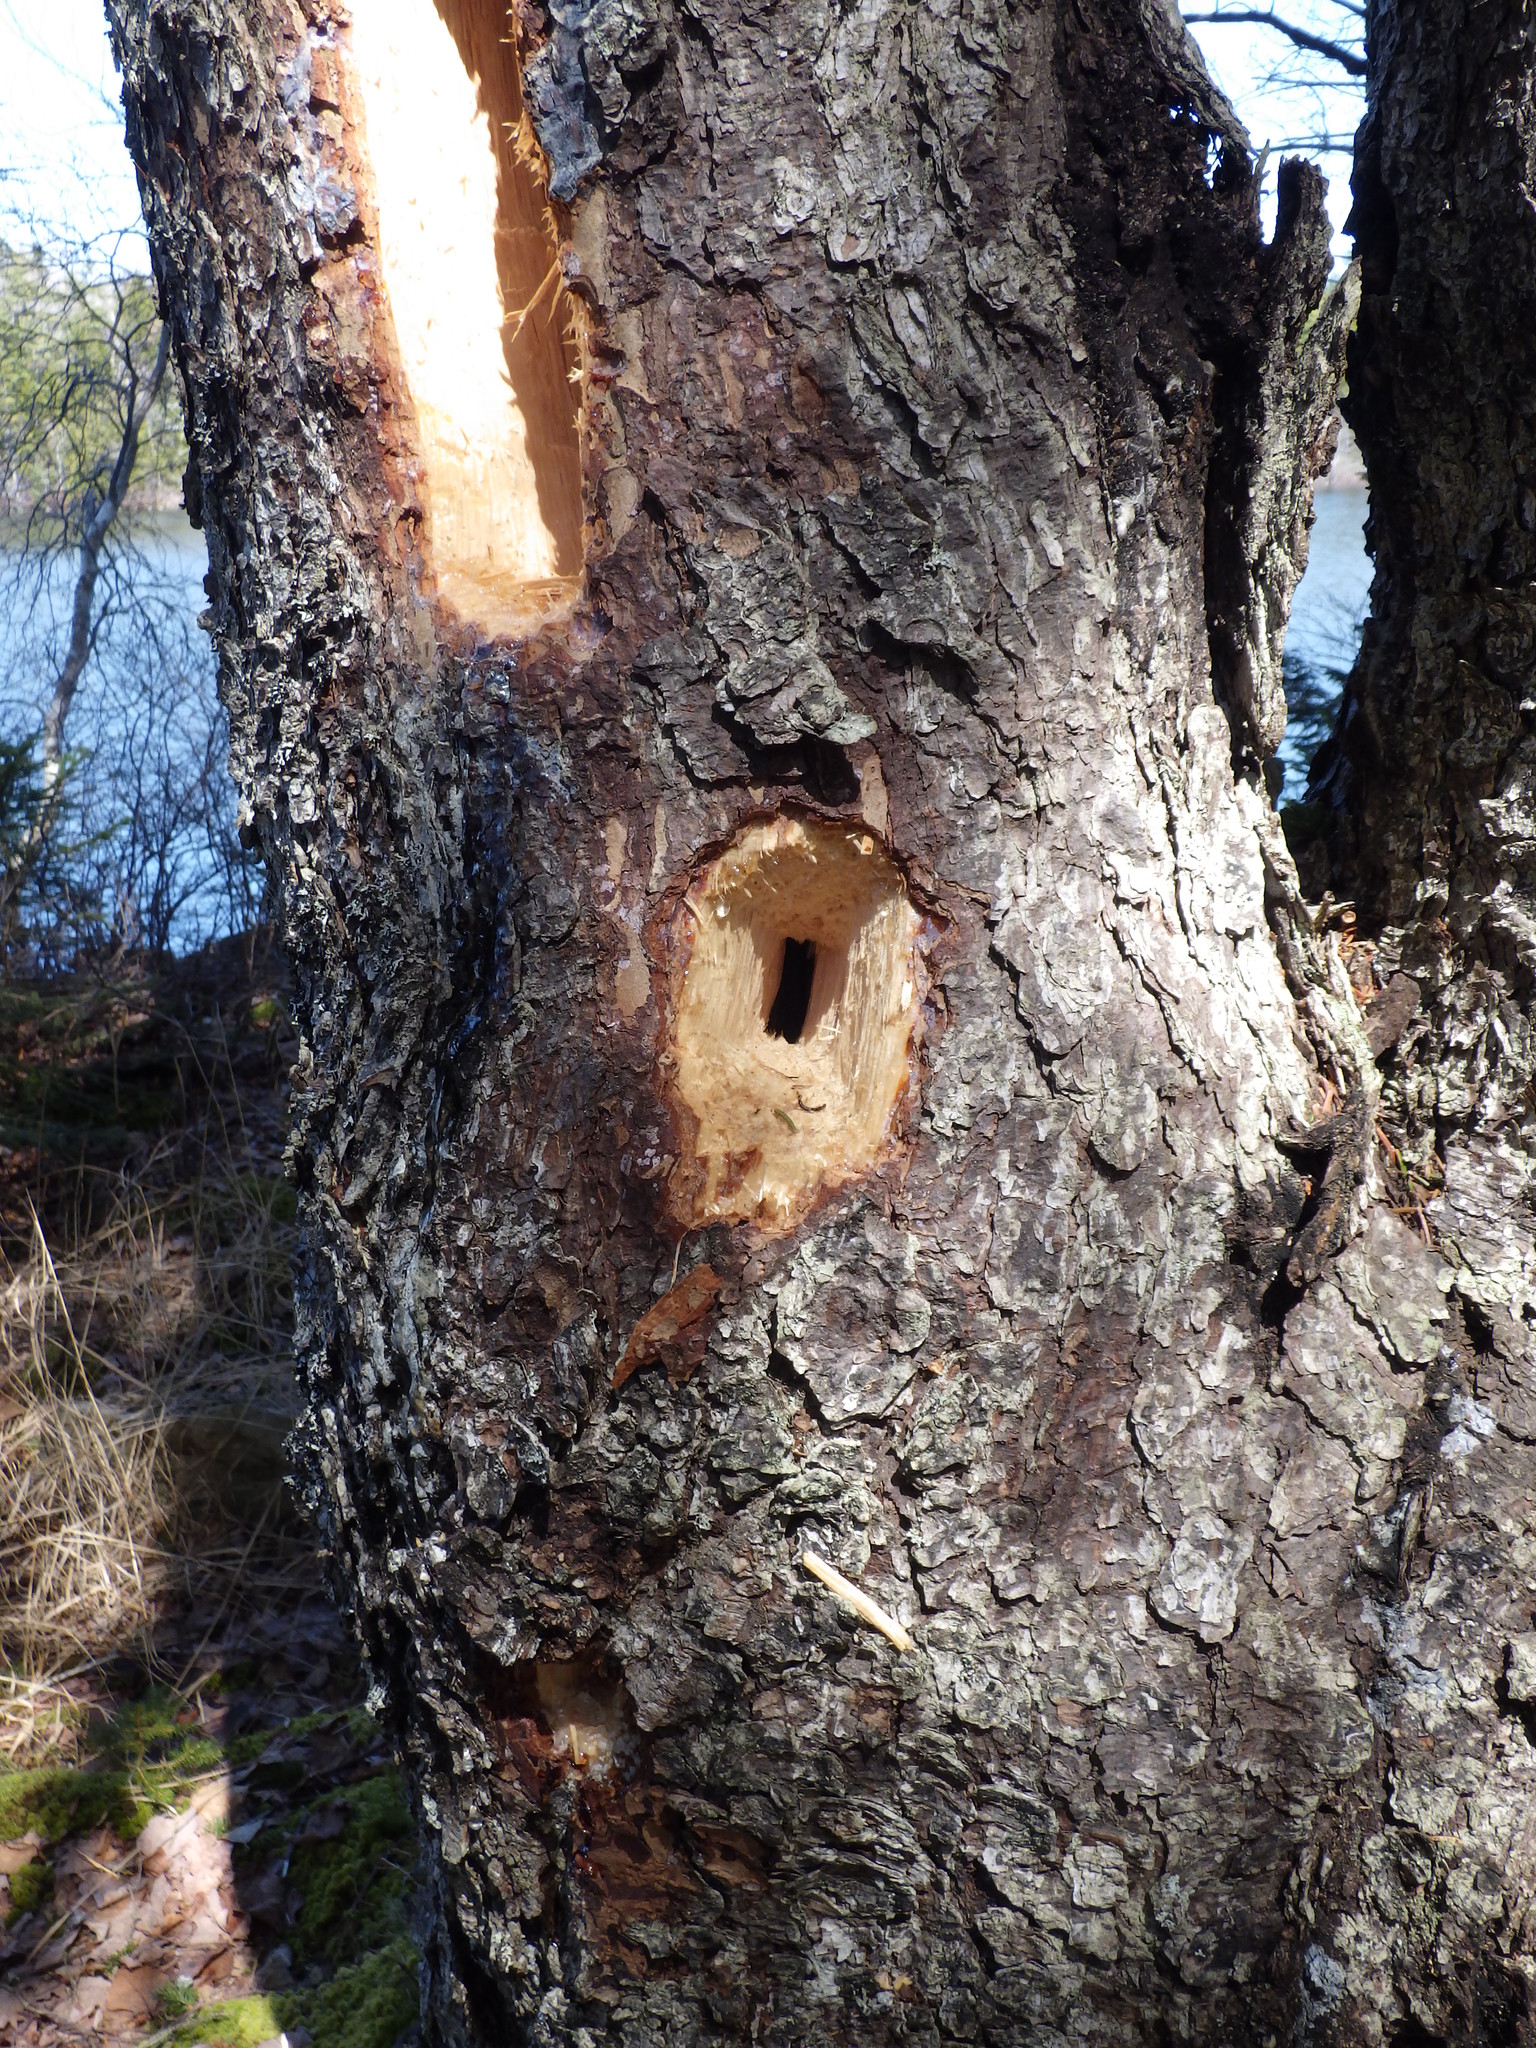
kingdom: Animalia
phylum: Chordata
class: Aves
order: Piciformes
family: Picidae
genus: Dryocopus
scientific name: Dryocopus pileatus
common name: Pileated woodpecker
